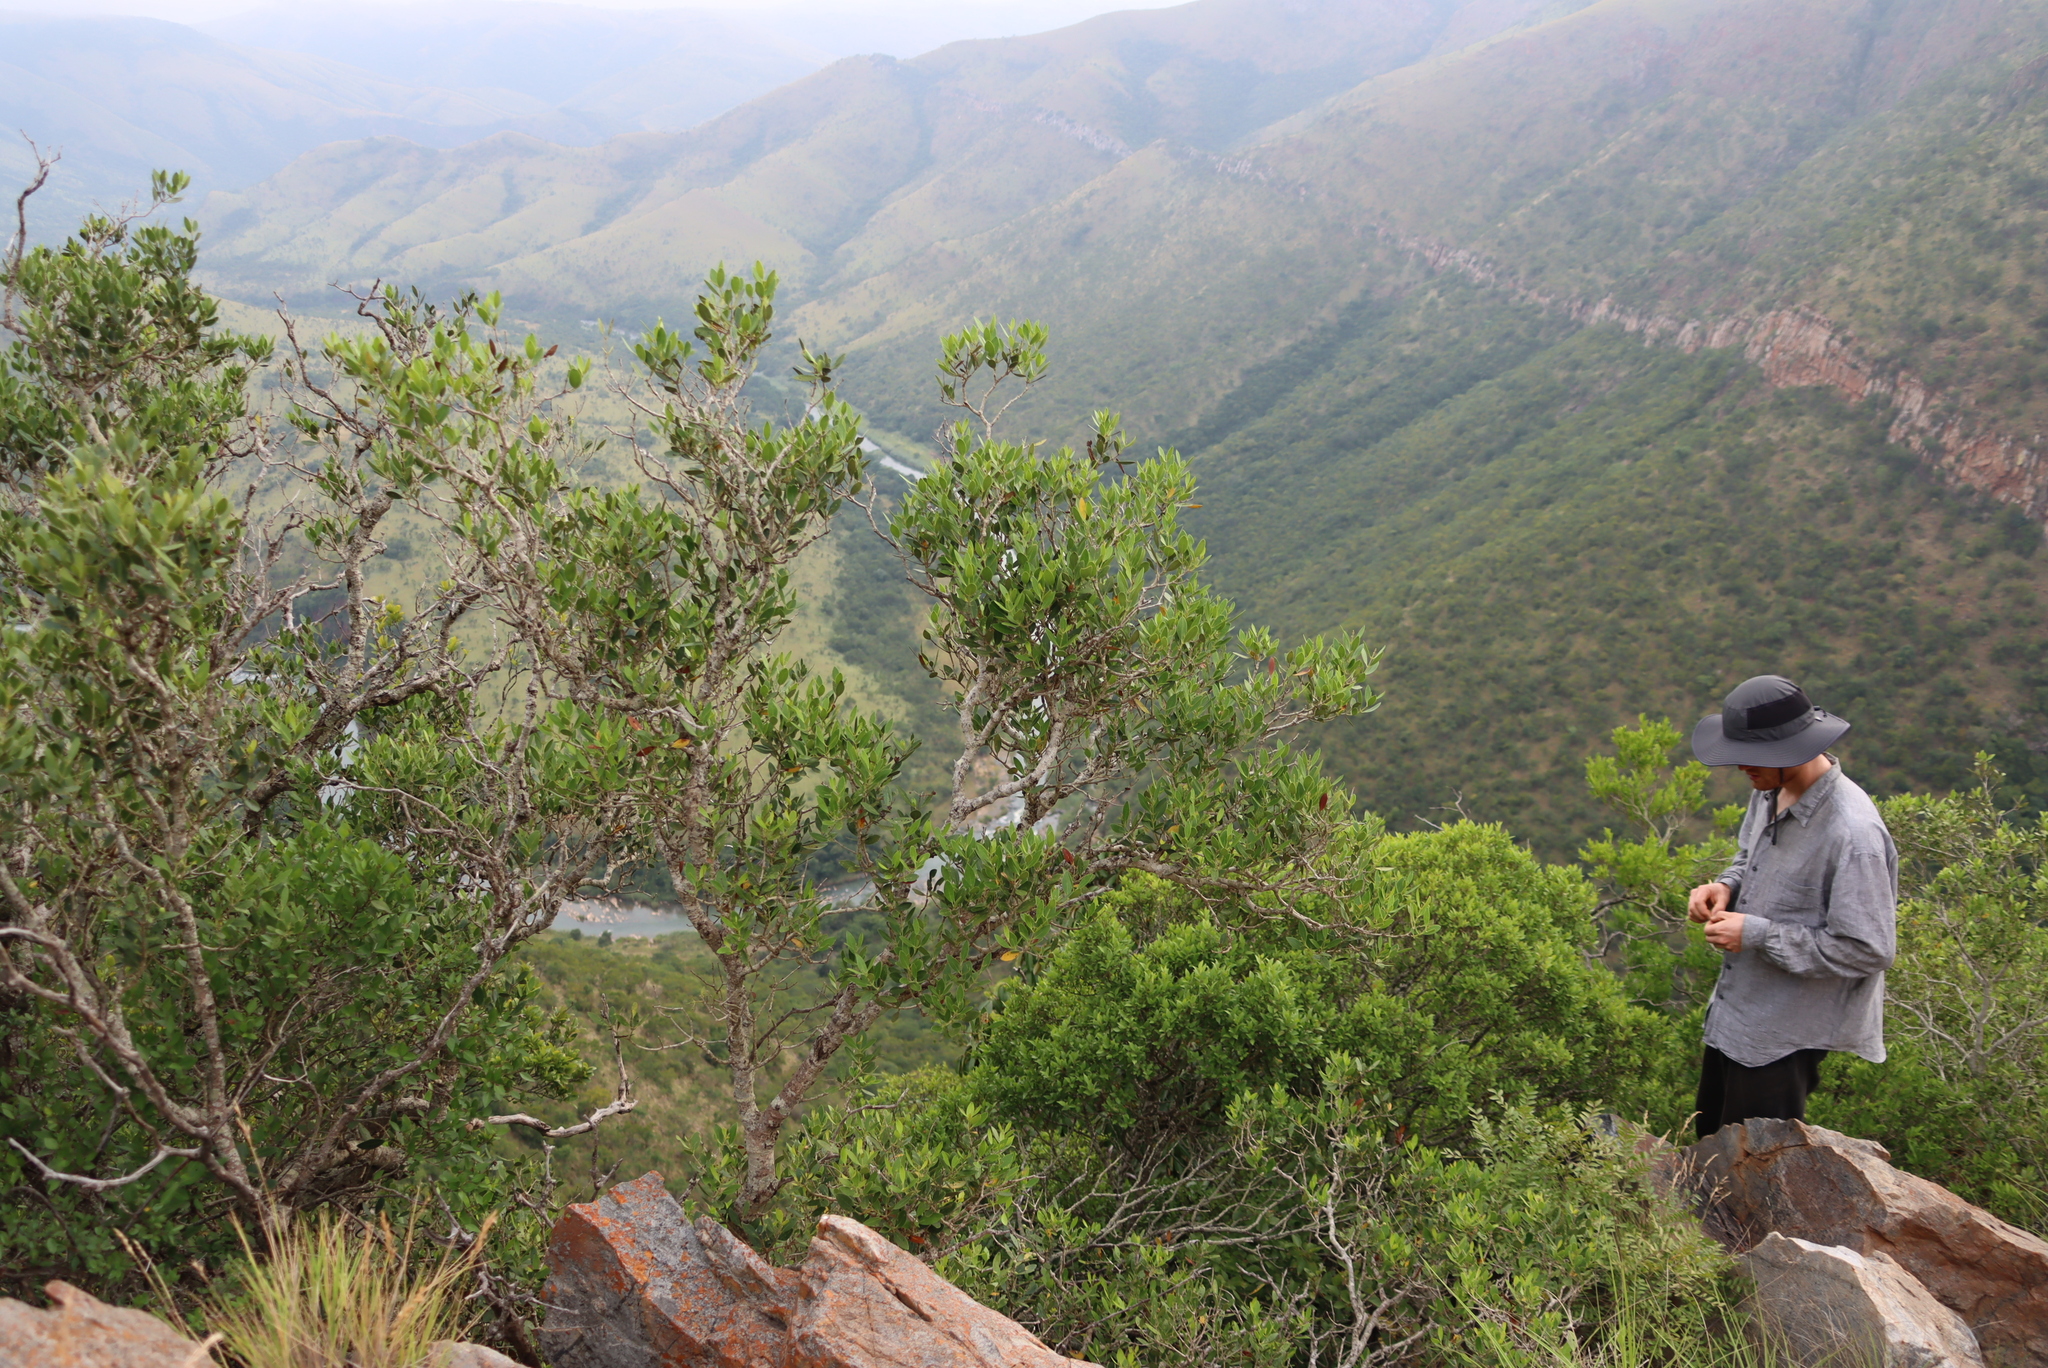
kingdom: Plantae
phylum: Tracheophyta
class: Magnoliopsida
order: Lamiales
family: Oleaceae
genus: Olea
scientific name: Olea capensis
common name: Black ironwood
